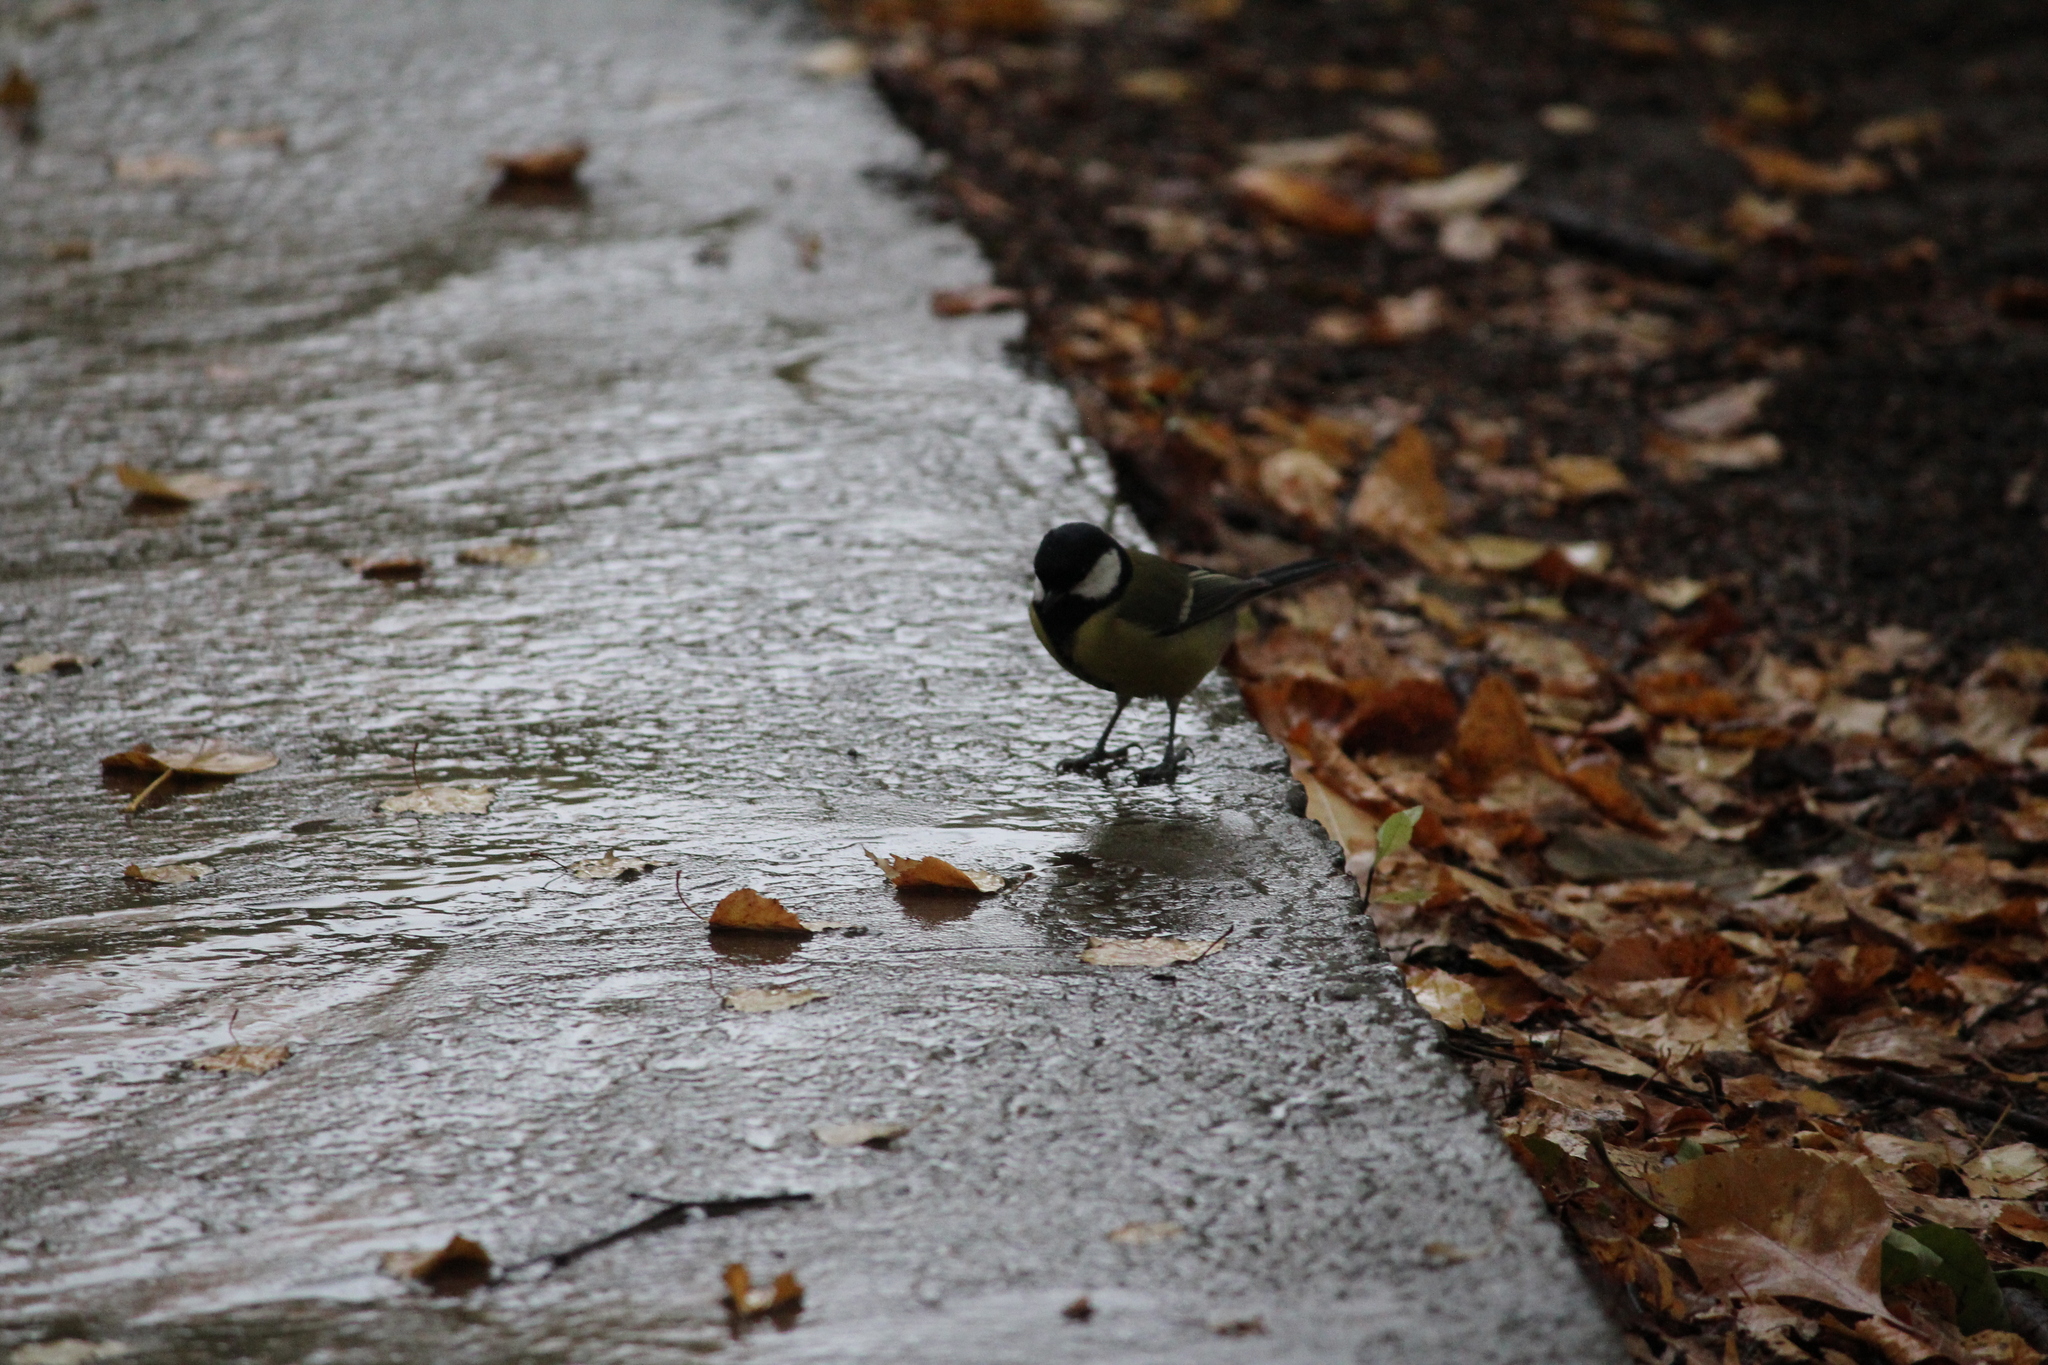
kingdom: Animalia
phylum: Chordata
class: Aves
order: Passeriformes
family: Paridae
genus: Parus
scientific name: Parus major
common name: Great tit
